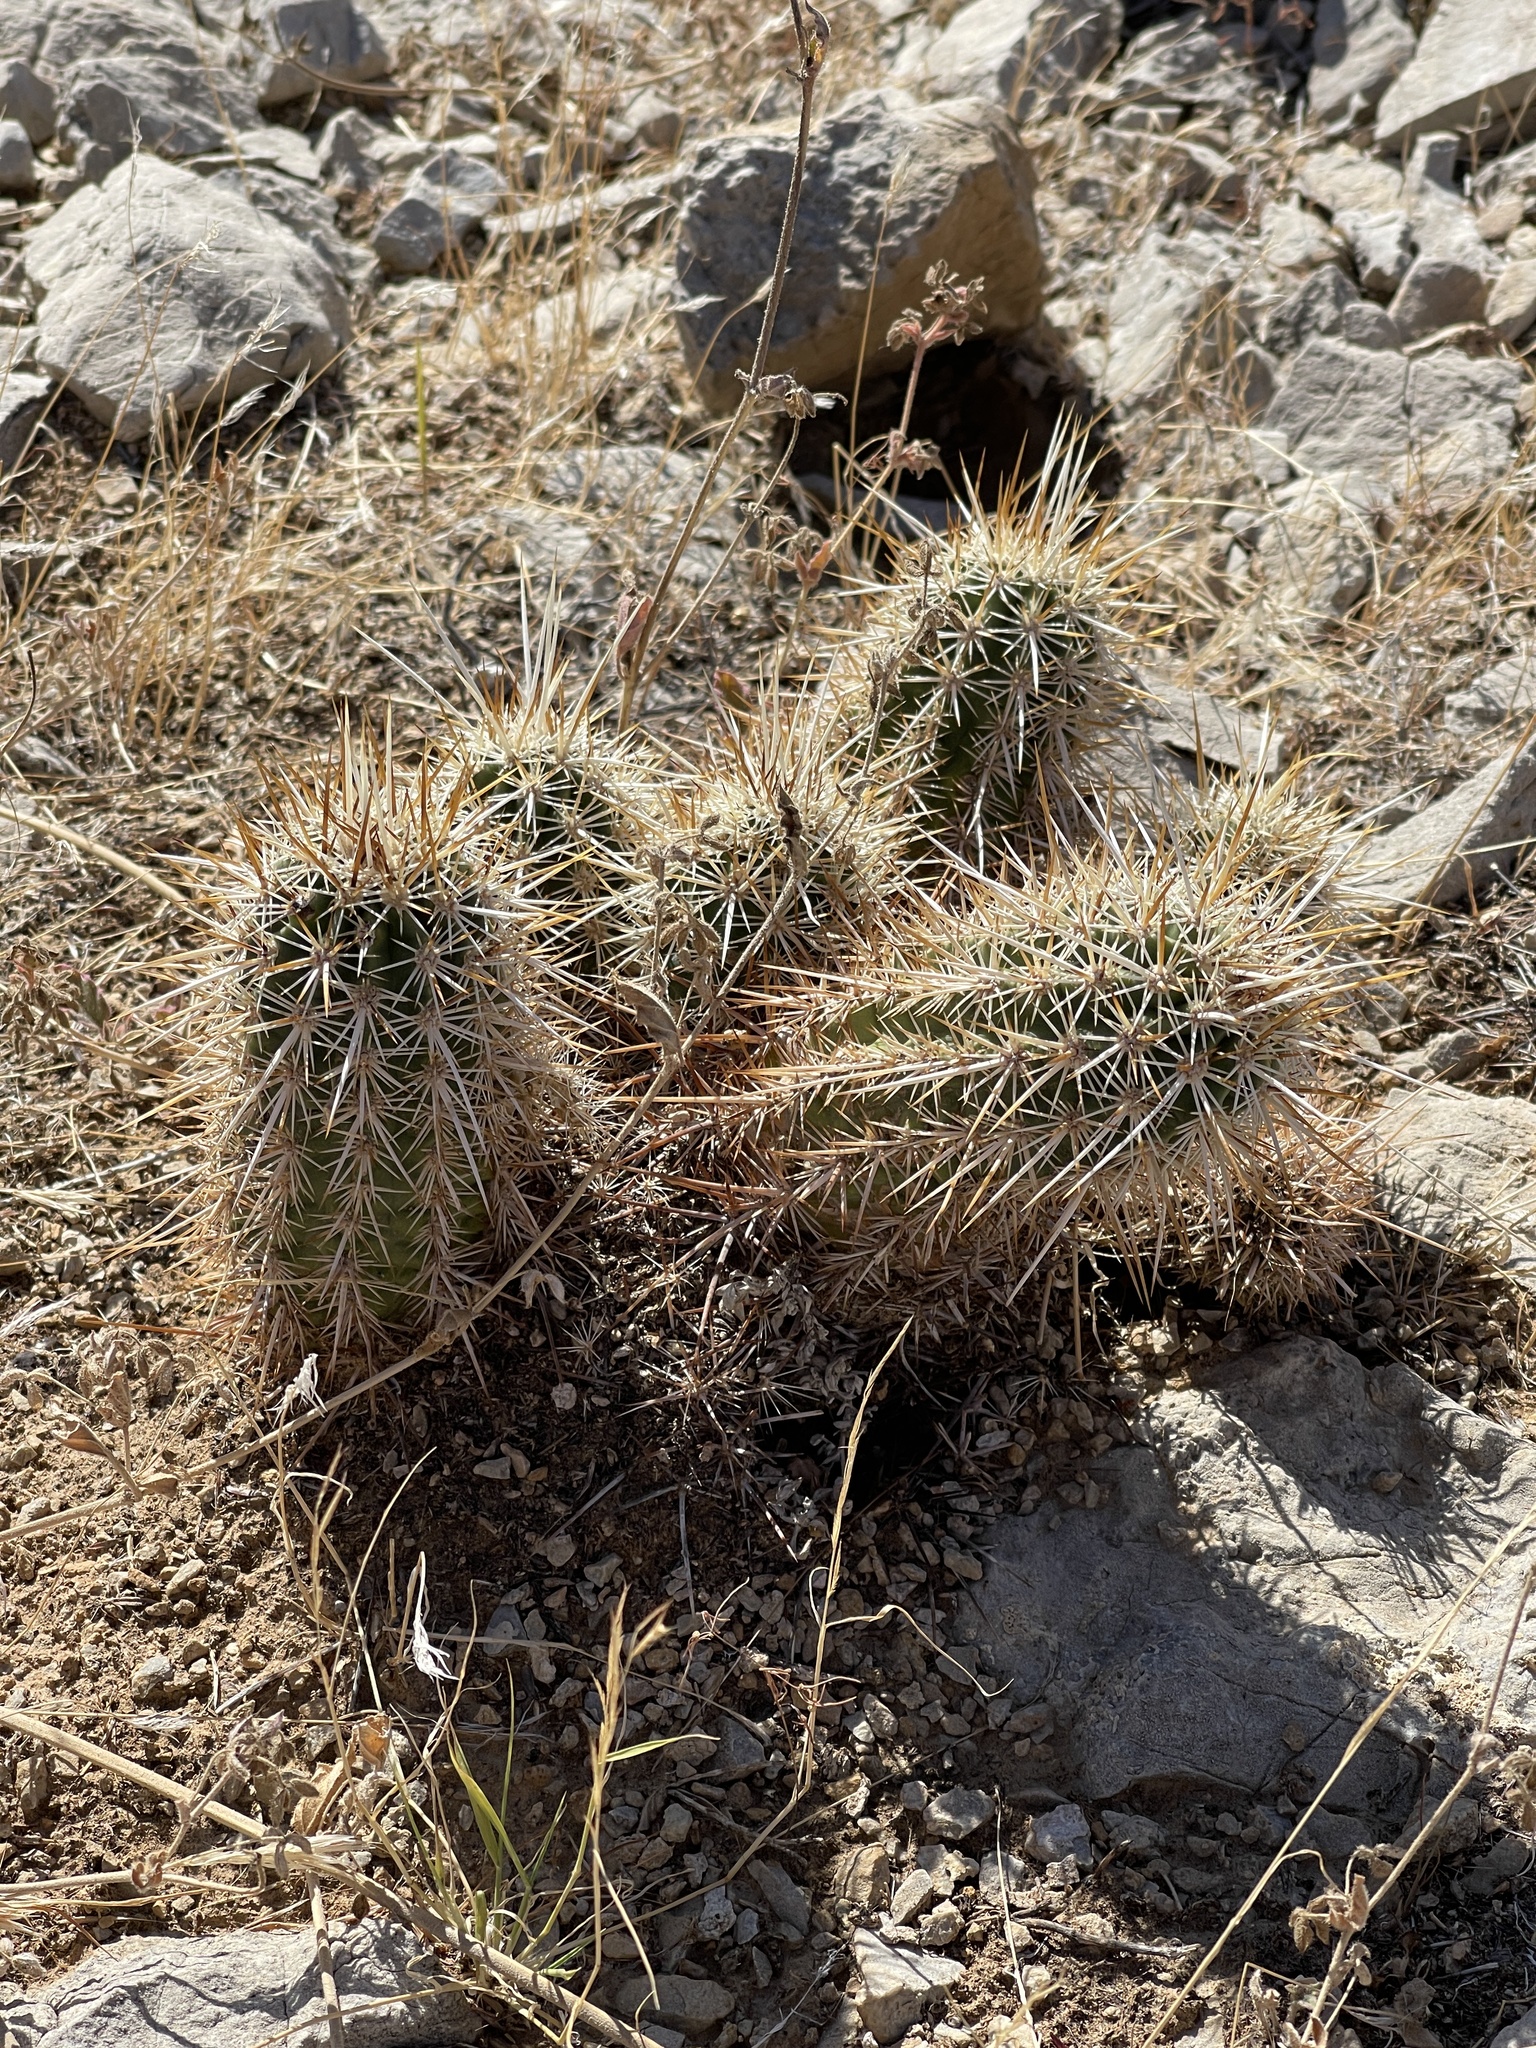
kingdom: Plantae
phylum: Tracheophyta
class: Magnoliopsida
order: Caryophyllales
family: Cactaceae
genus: Echinocereus
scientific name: Echinocereus engelmannii
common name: Engelmann's hedgehog cactus
